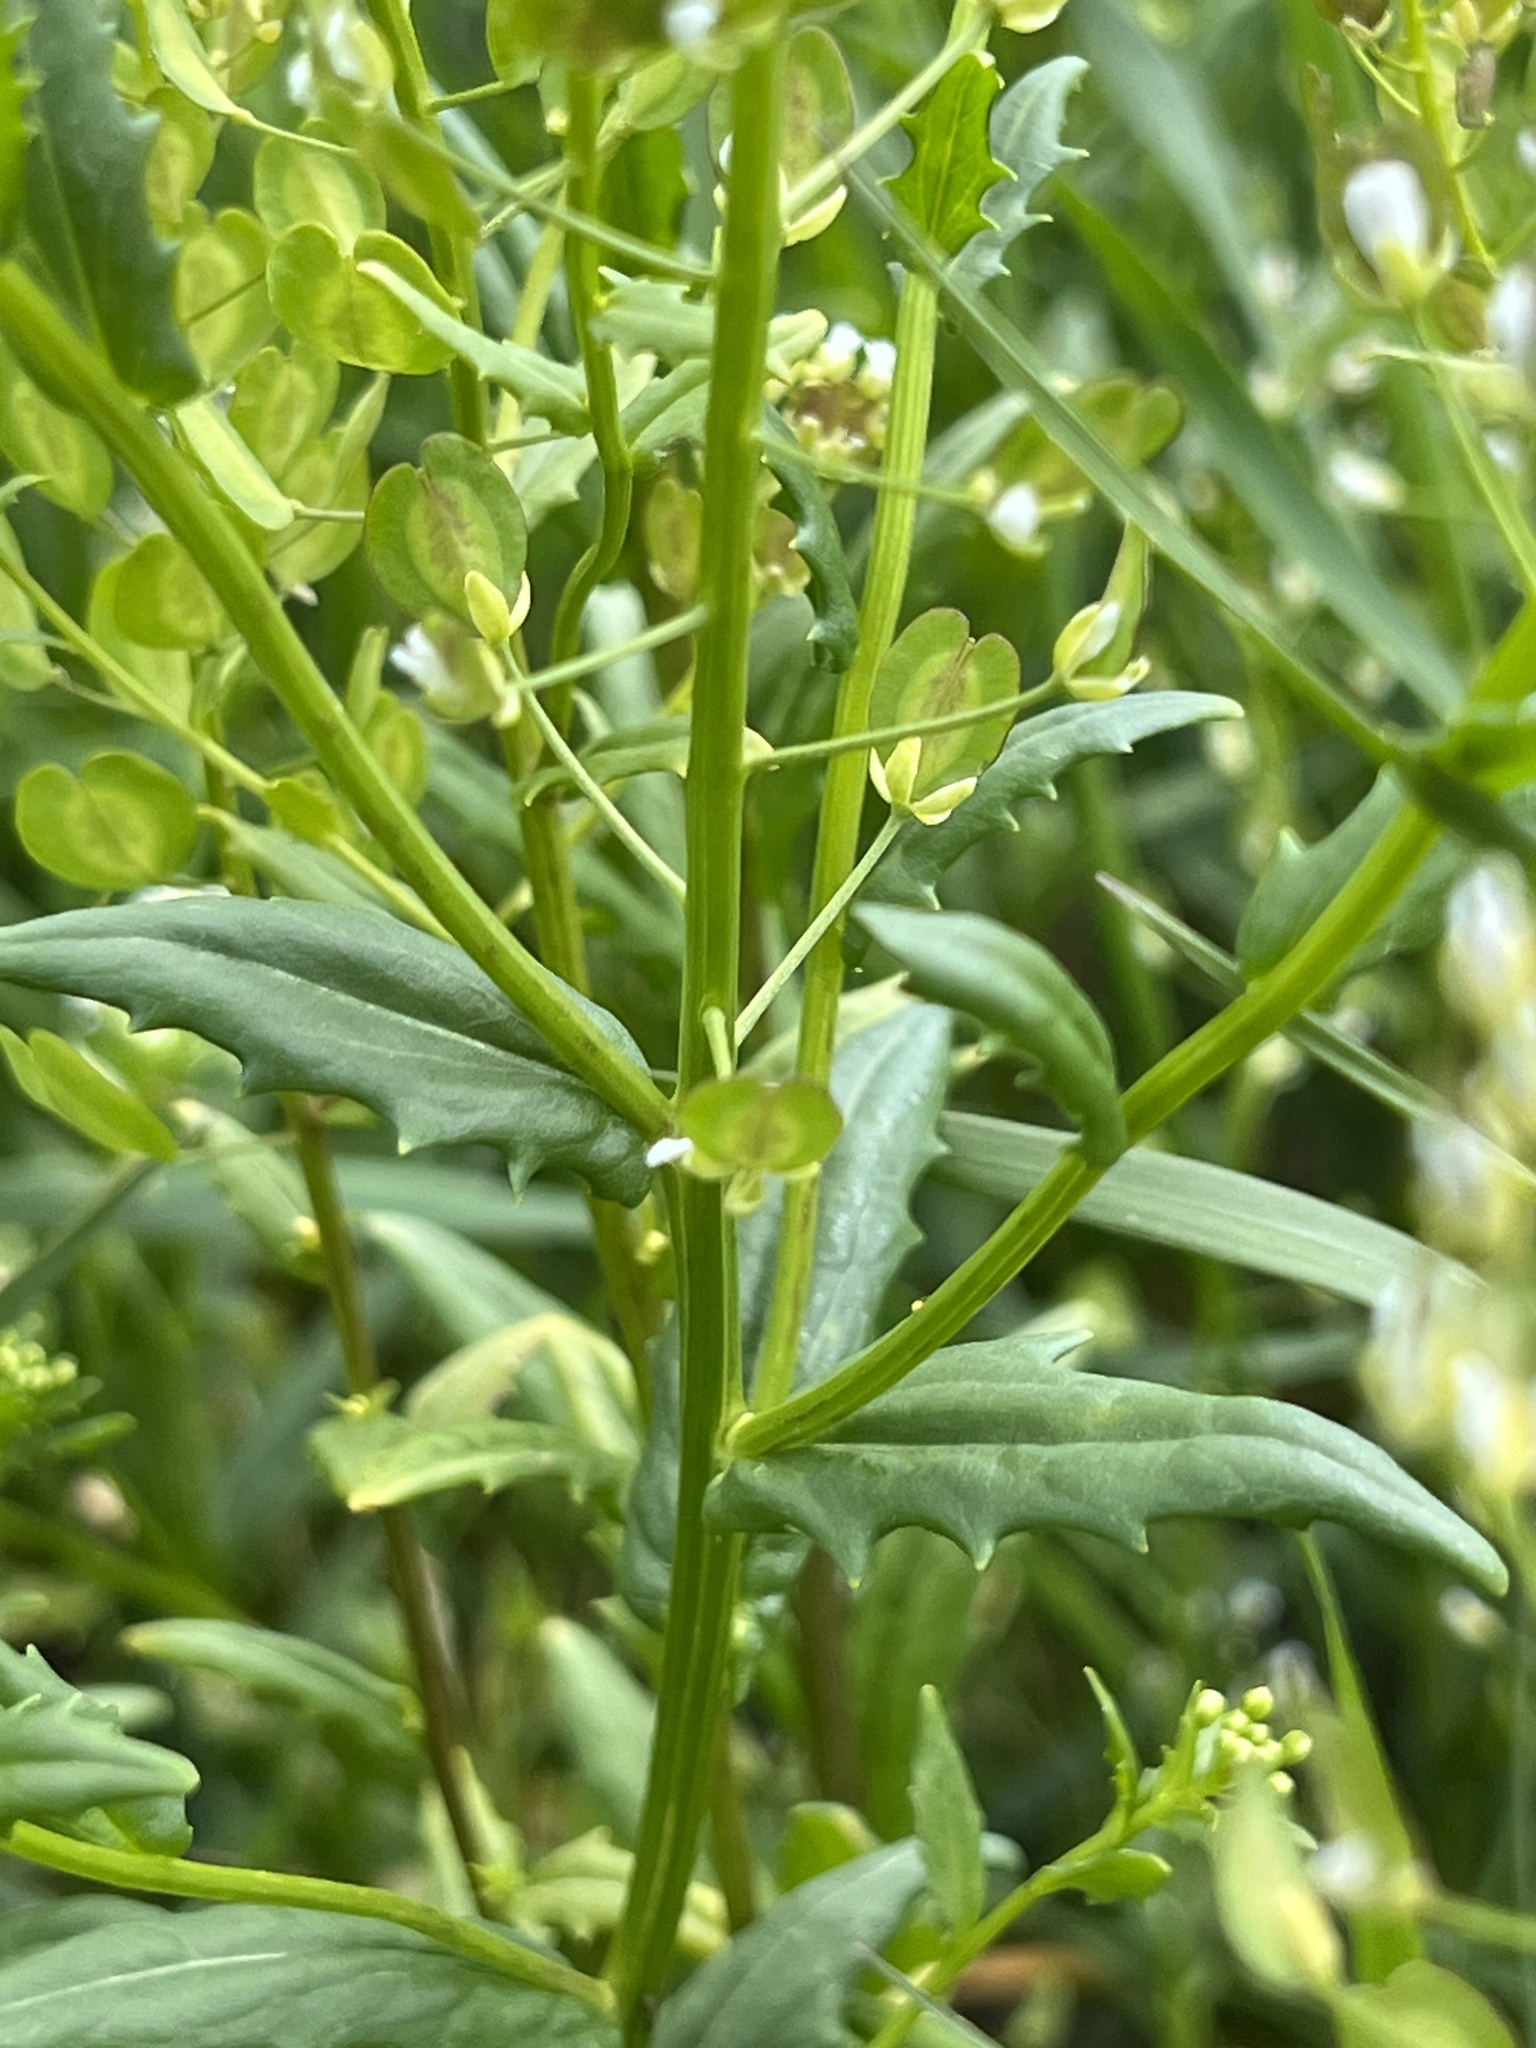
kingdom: Plantae
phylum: Tracheophyta
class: Magnoliopsida
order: Brassicales
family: Brassicaceae
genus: Thlaspi
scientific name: Thlaspi arvense
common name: Field pennycress
